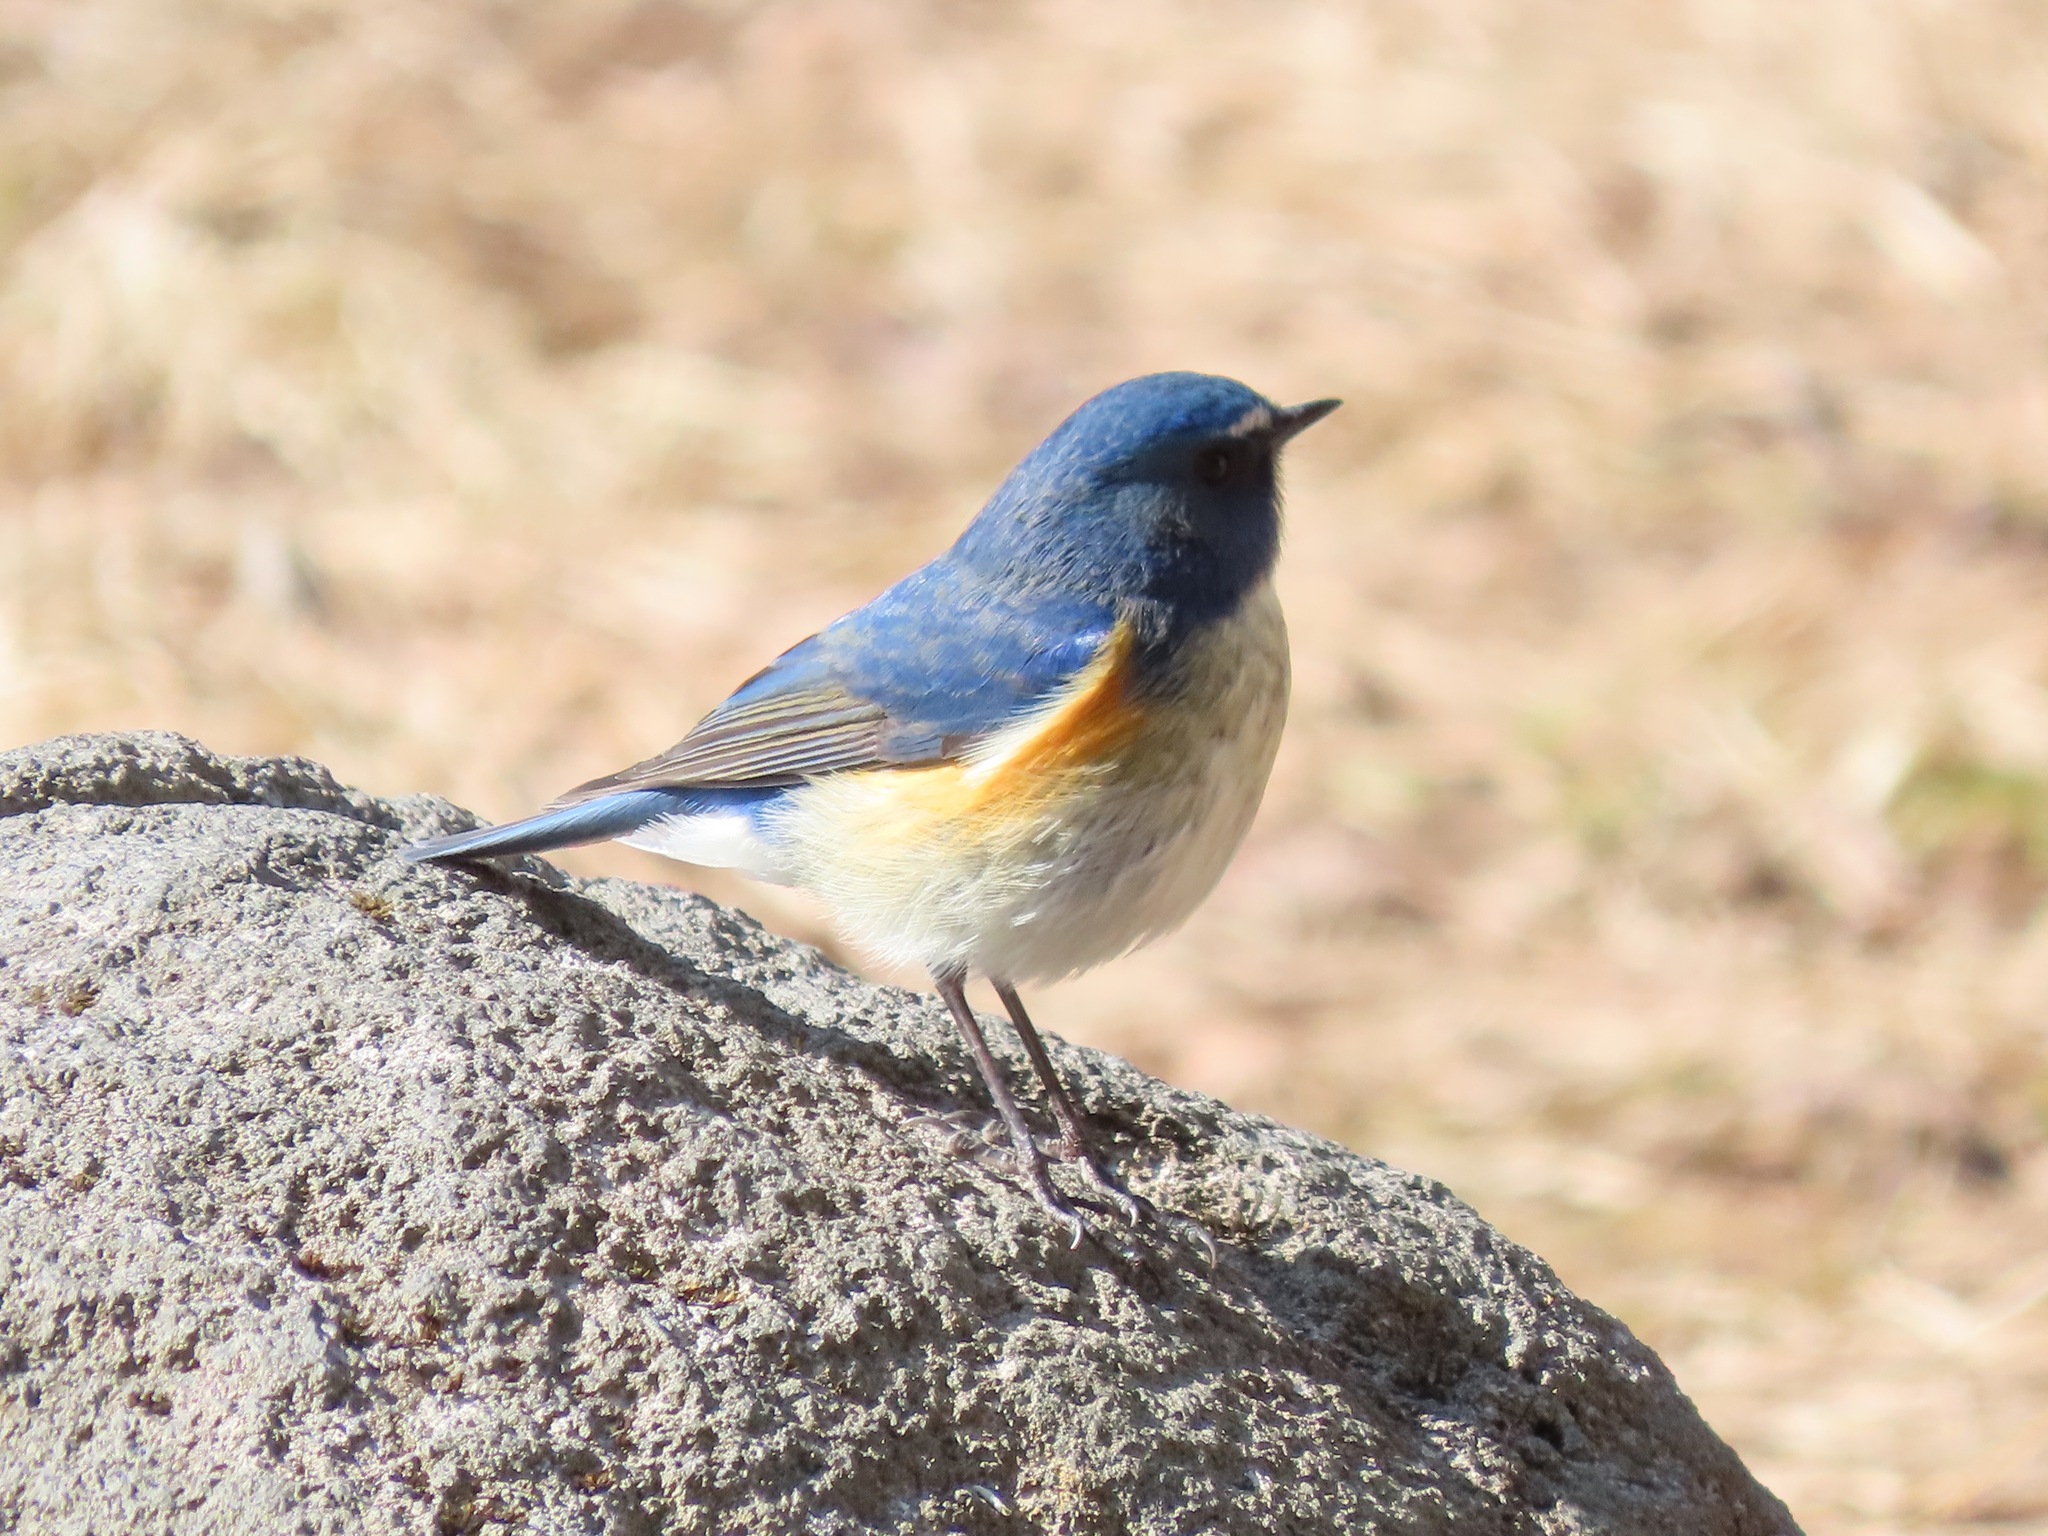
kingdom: Animalia
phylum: Chordata
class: Aves
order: Passeriformes
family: Muscicapidae
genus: Tarsiger
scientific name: Tarsiger cyanurus
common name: Red-flanked bluetail
